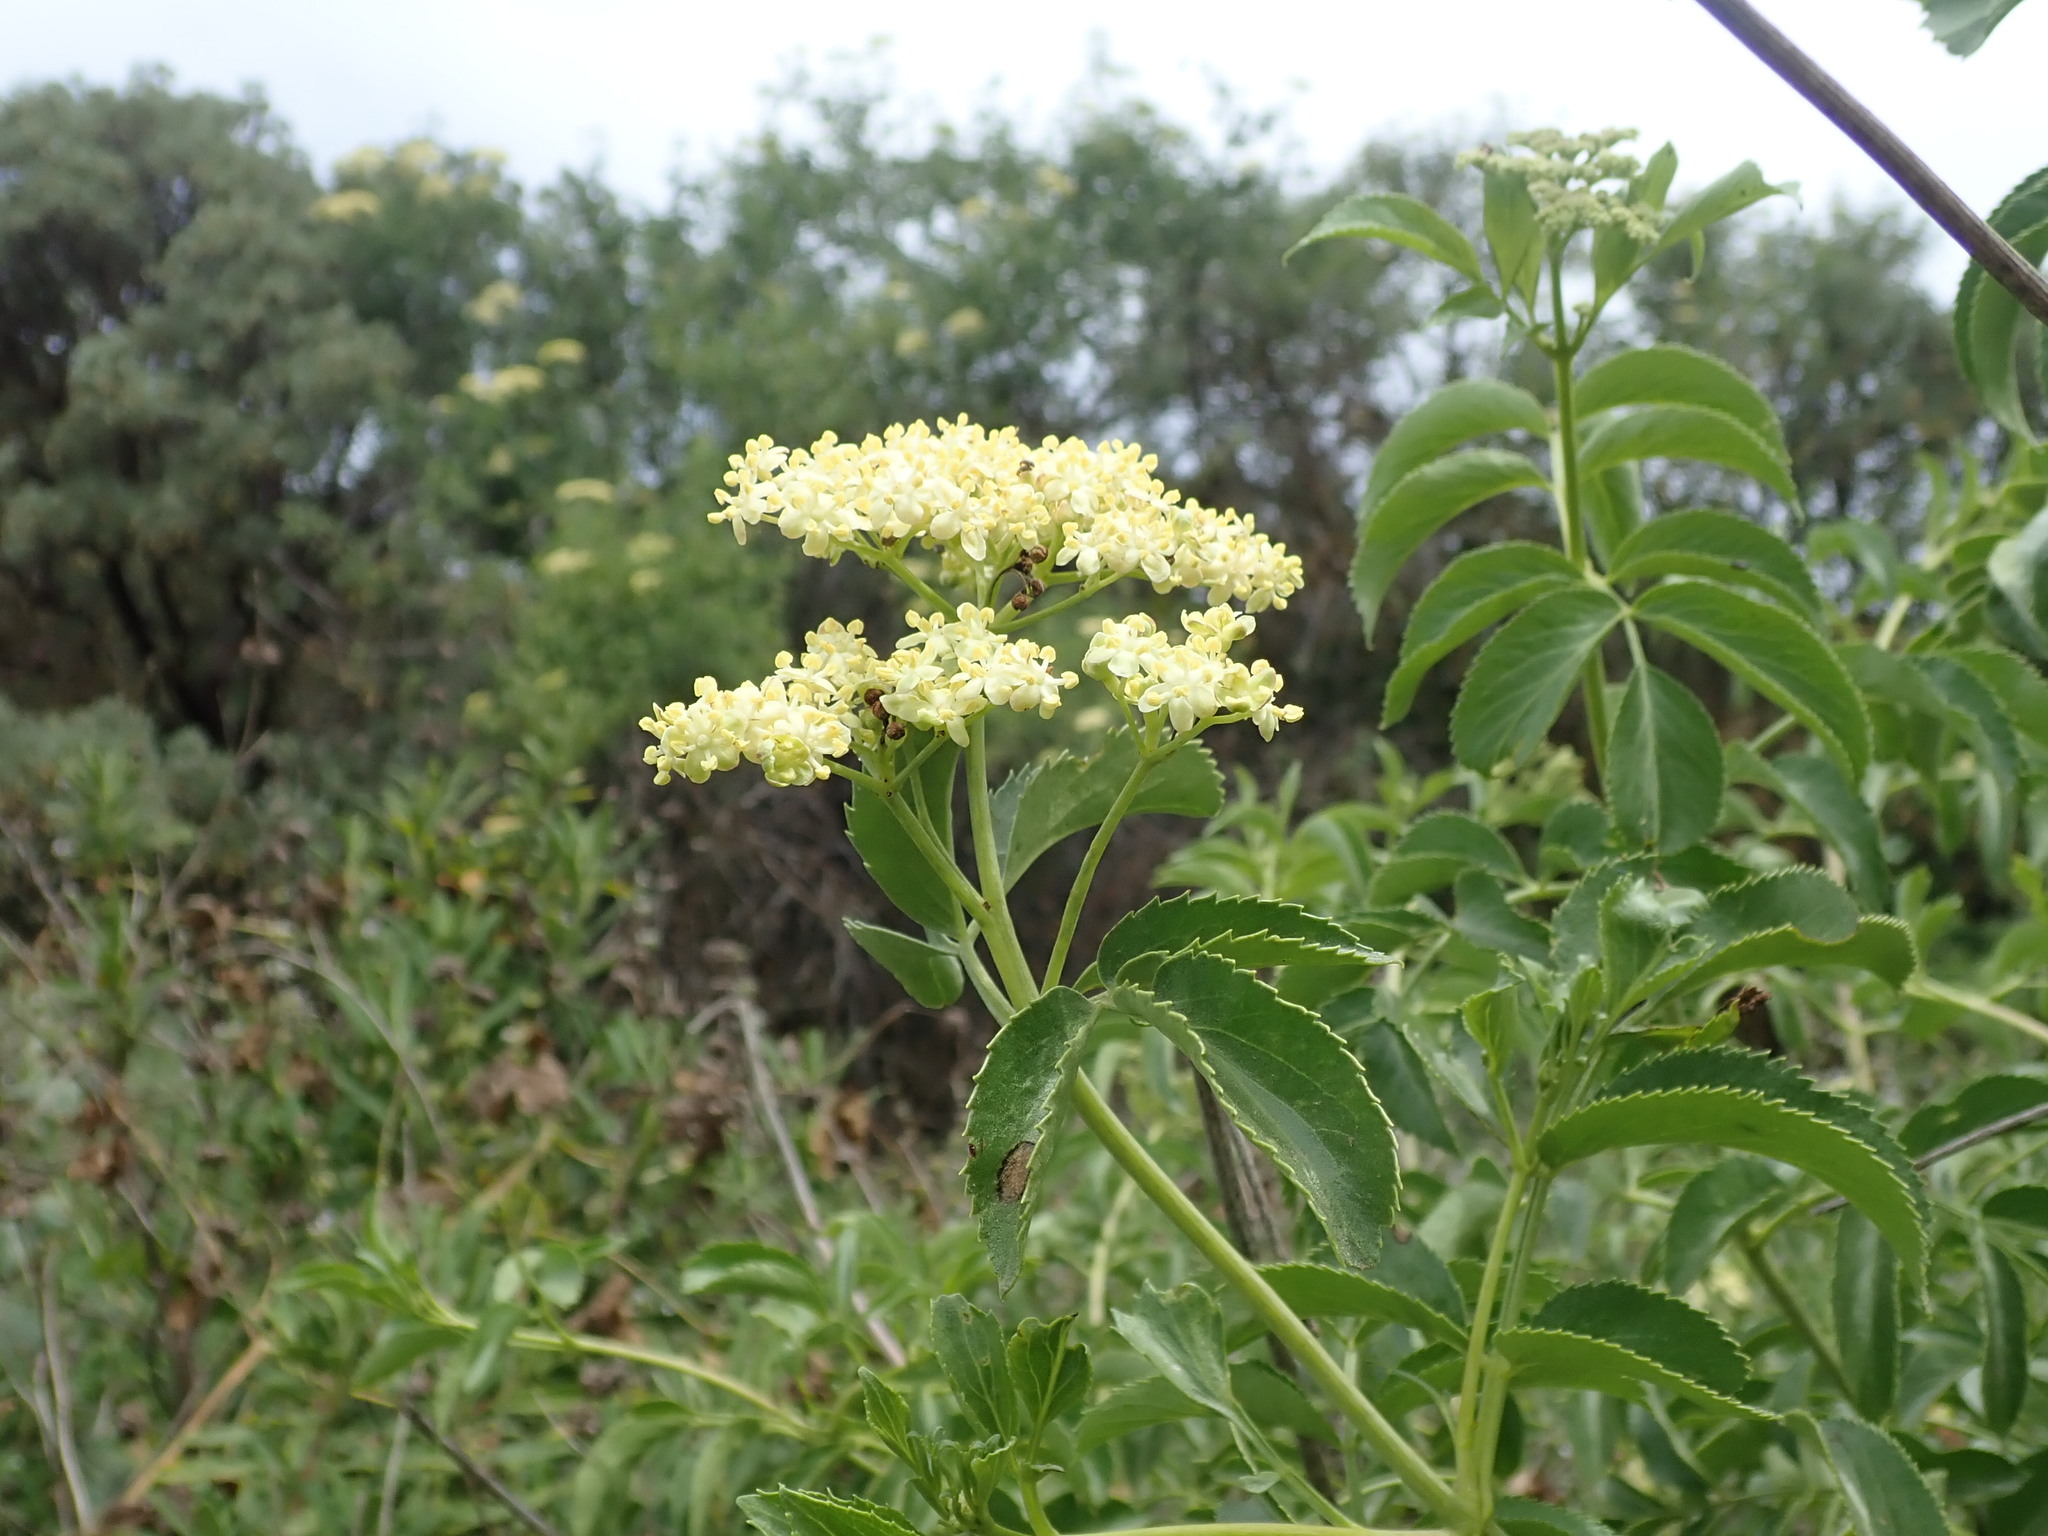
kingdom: Plantae
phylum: Tracheophyta
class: Magnoliopsida
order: Dipsacales
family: Viburnaceae
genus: Sambucus
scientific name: Sambucus cerulea
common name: Blue elder
